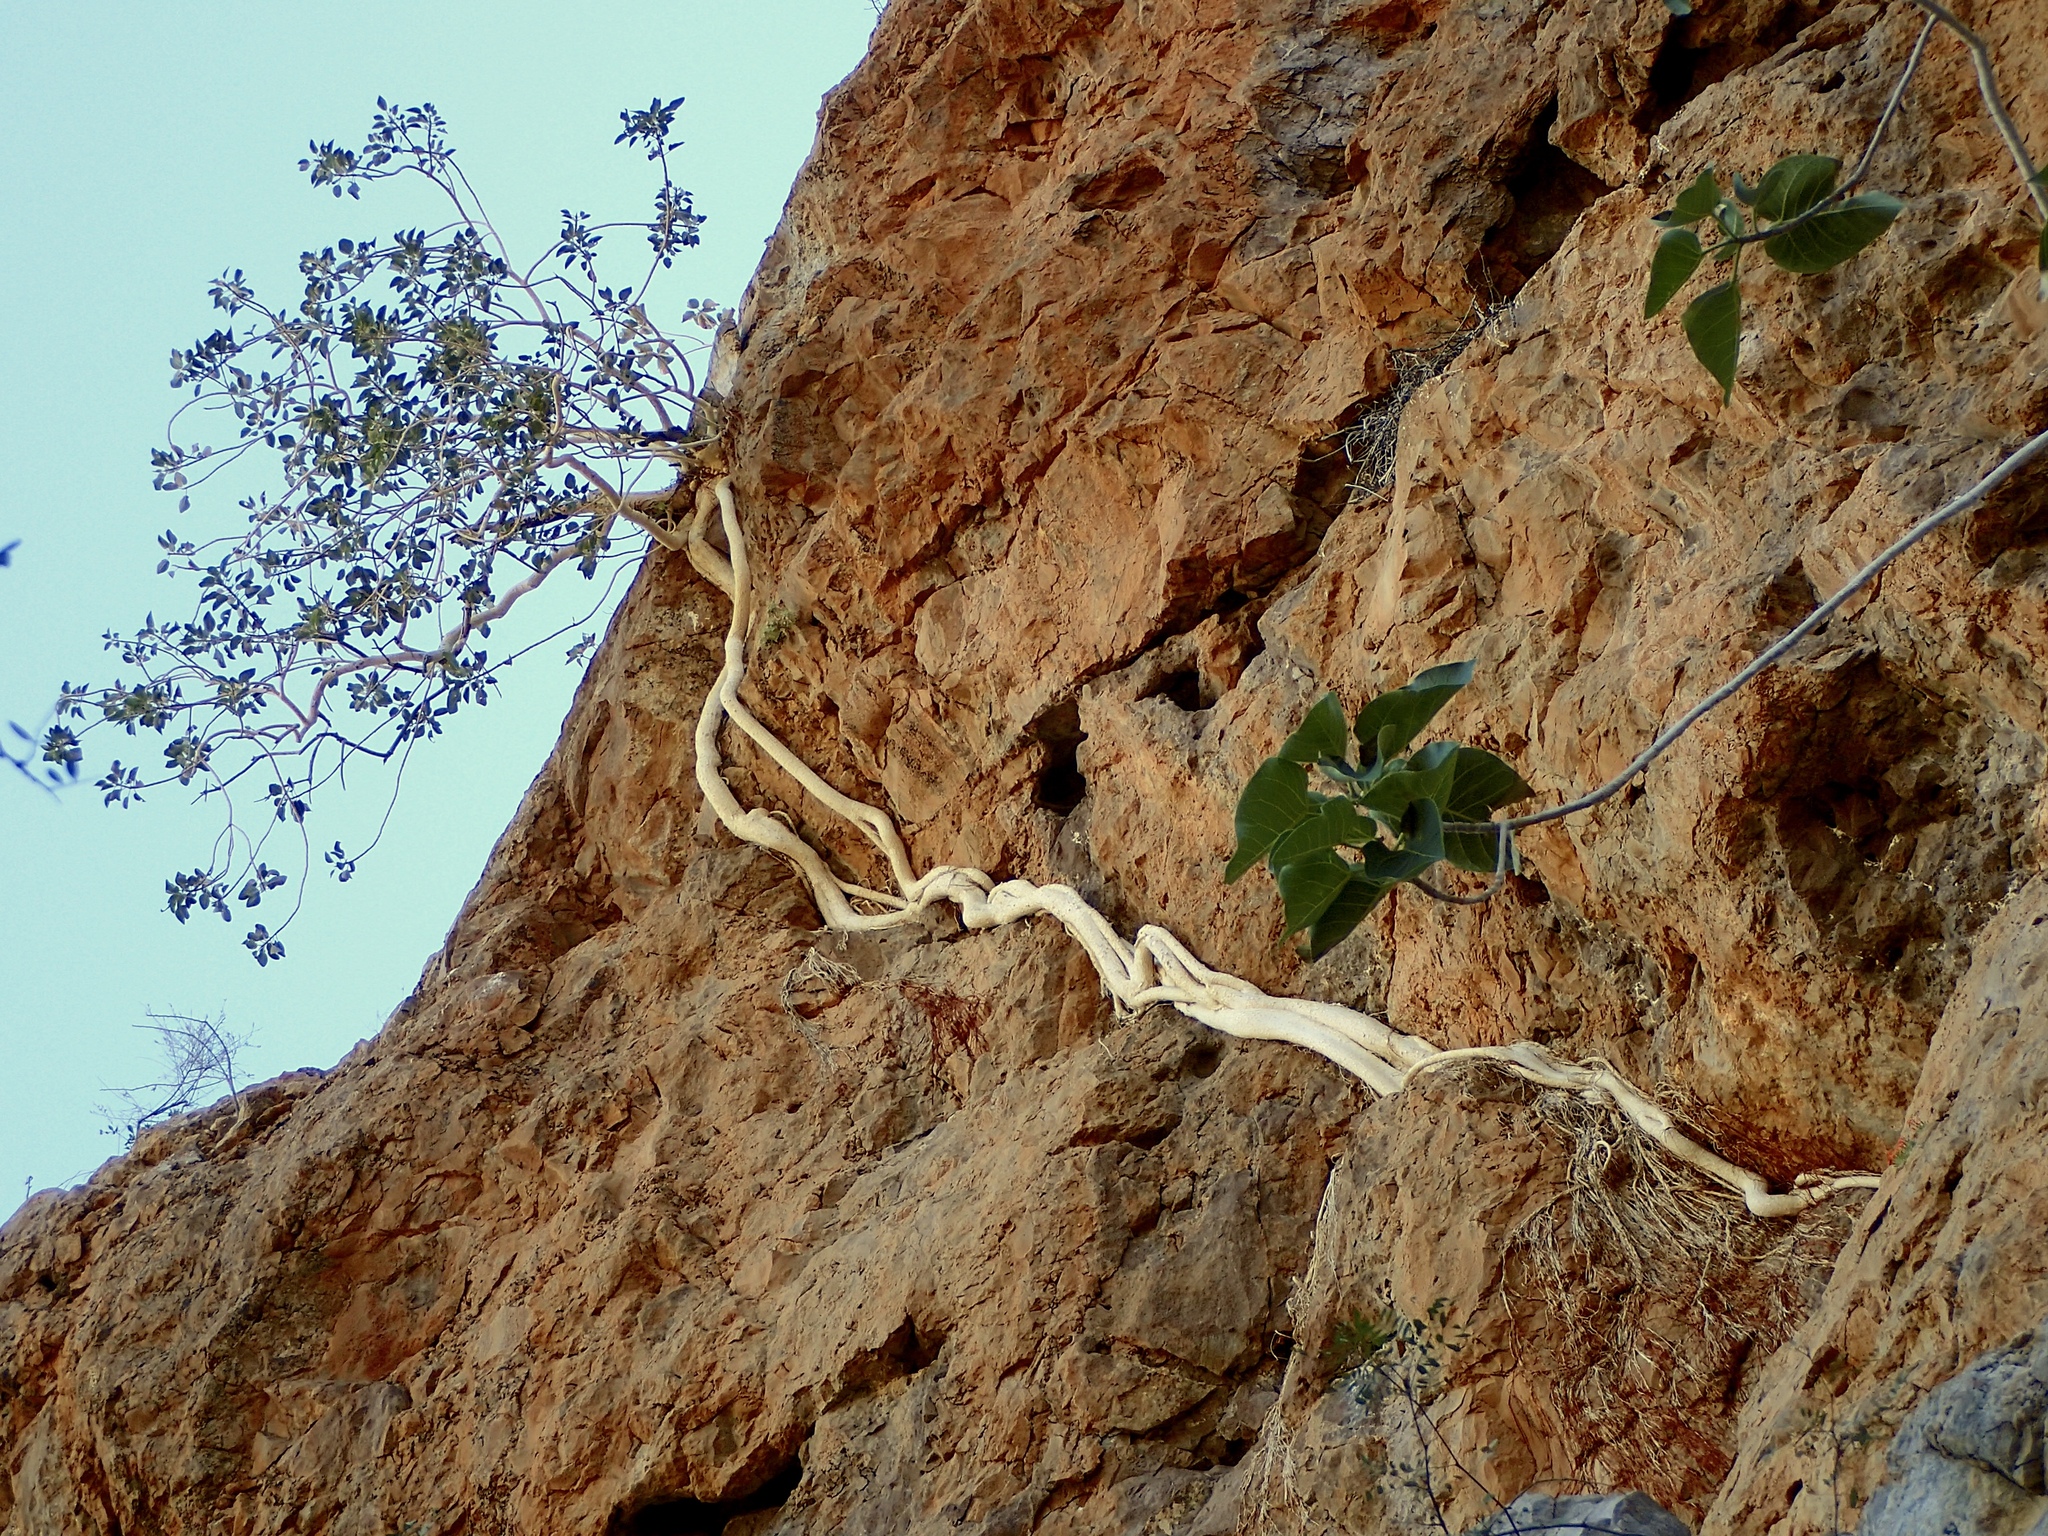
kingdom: Plantae
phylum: Tracheophyta
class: Magnoliopsida
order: Rosales
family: Moraceae
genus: Ficus
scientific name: Ficus petiolaris
